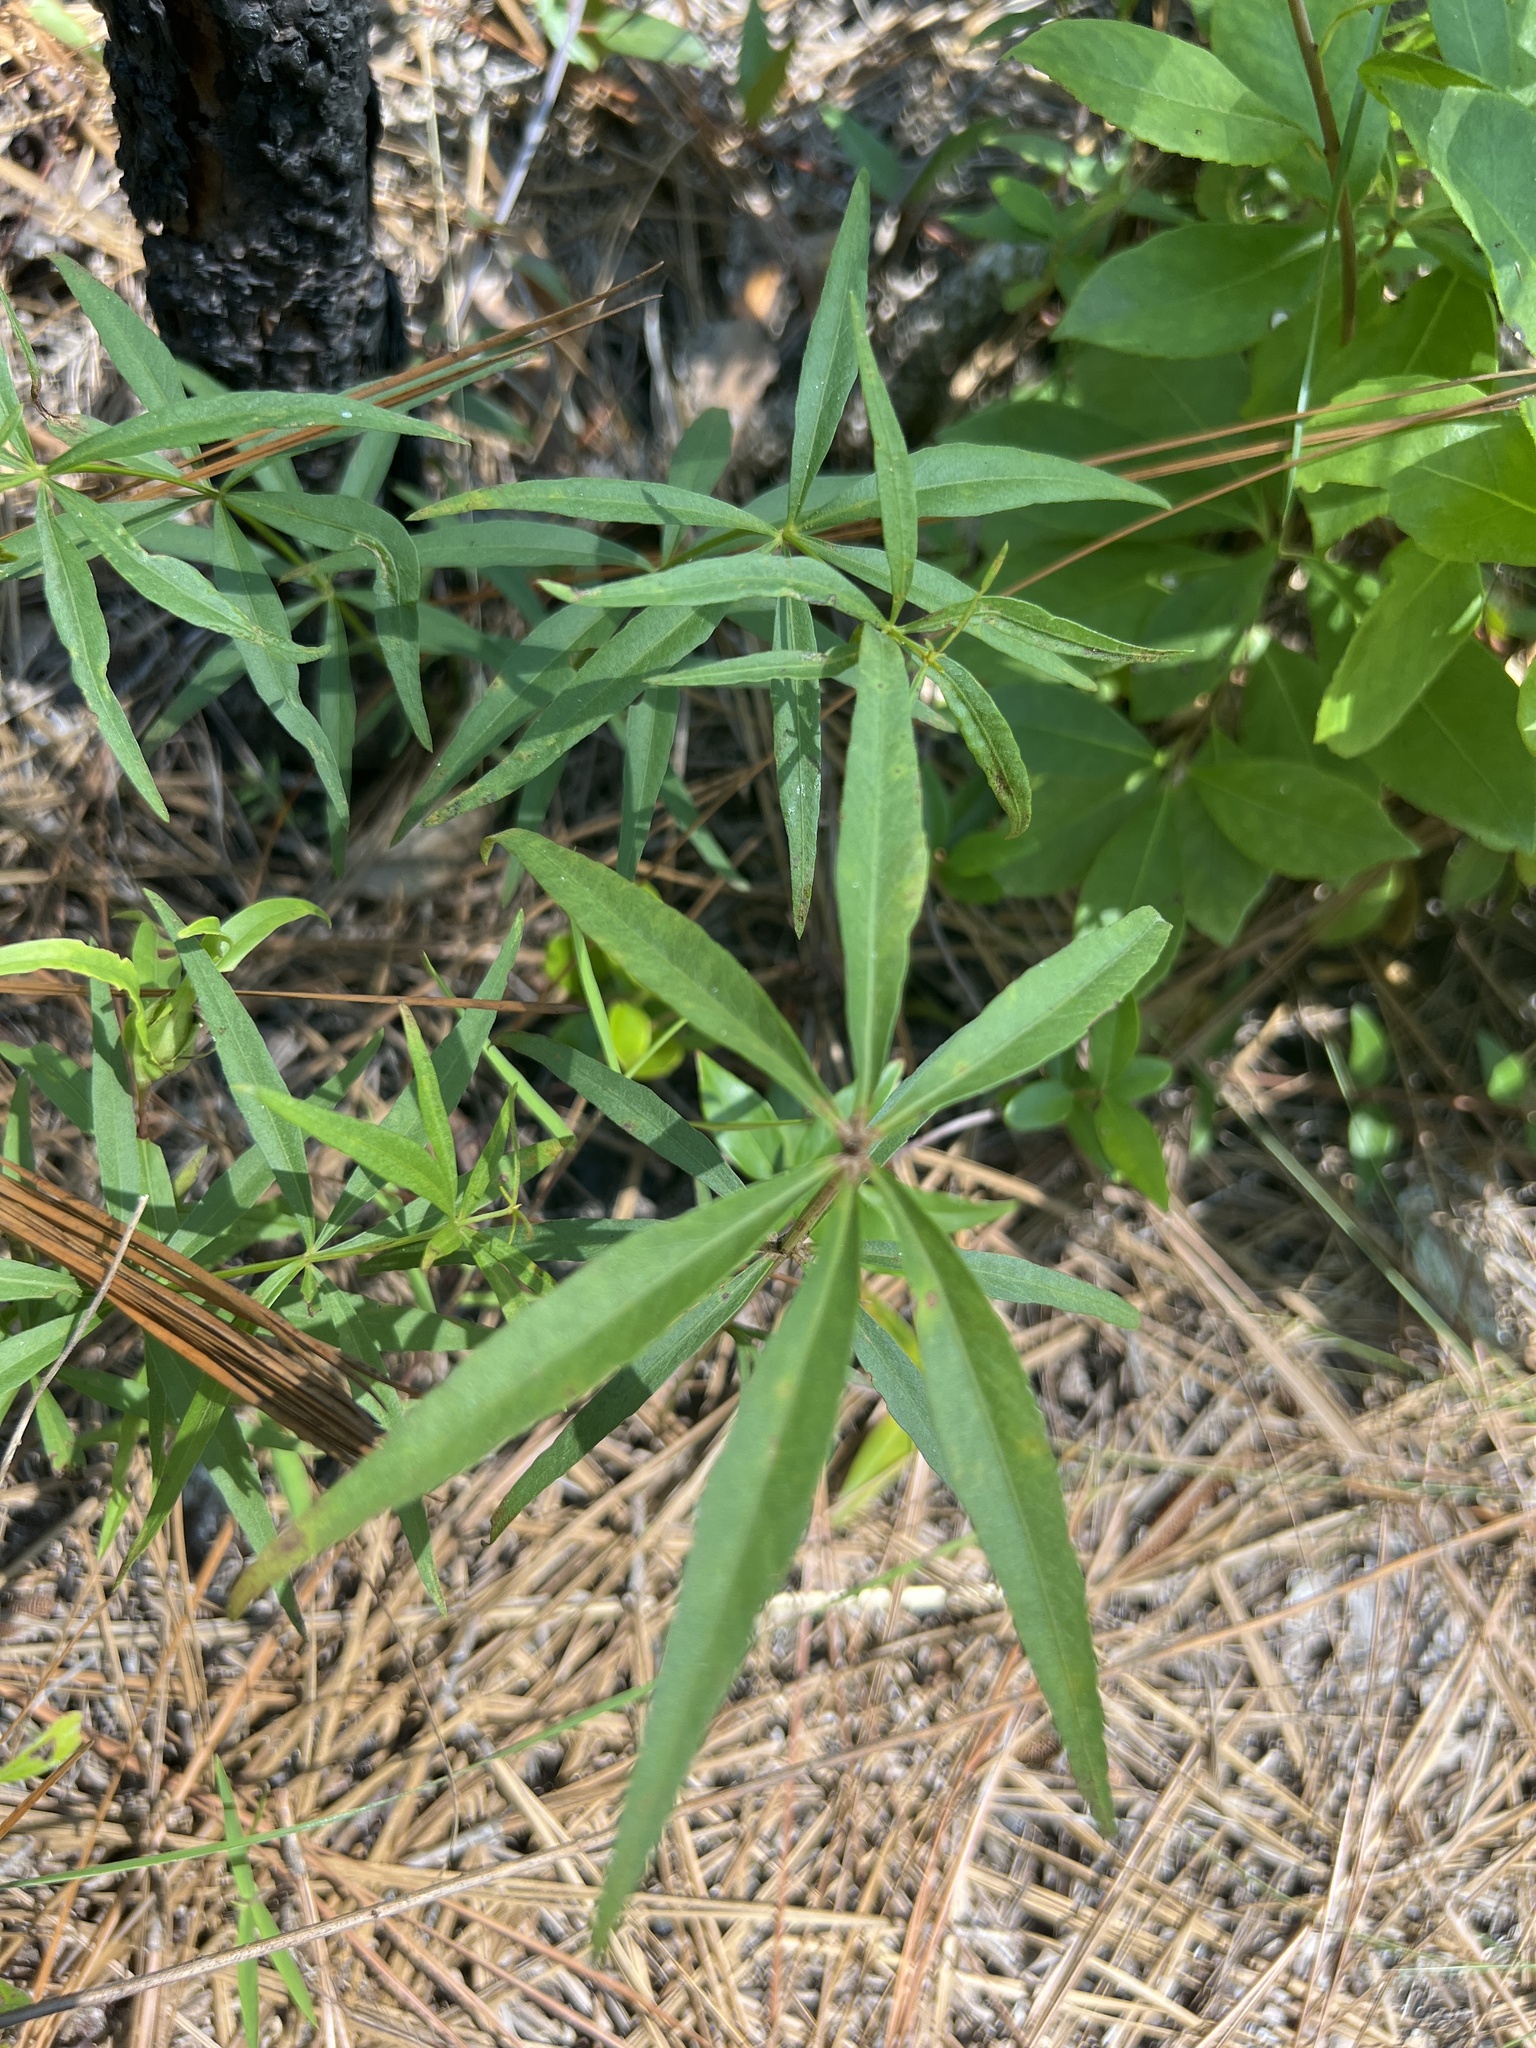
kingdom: Plantae
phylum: Tracheophyta
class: Magnoliopsida
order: Asterales
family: Asteraceae
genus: Coreopsis
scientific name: Coreopsis major
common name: Forest tickseed
